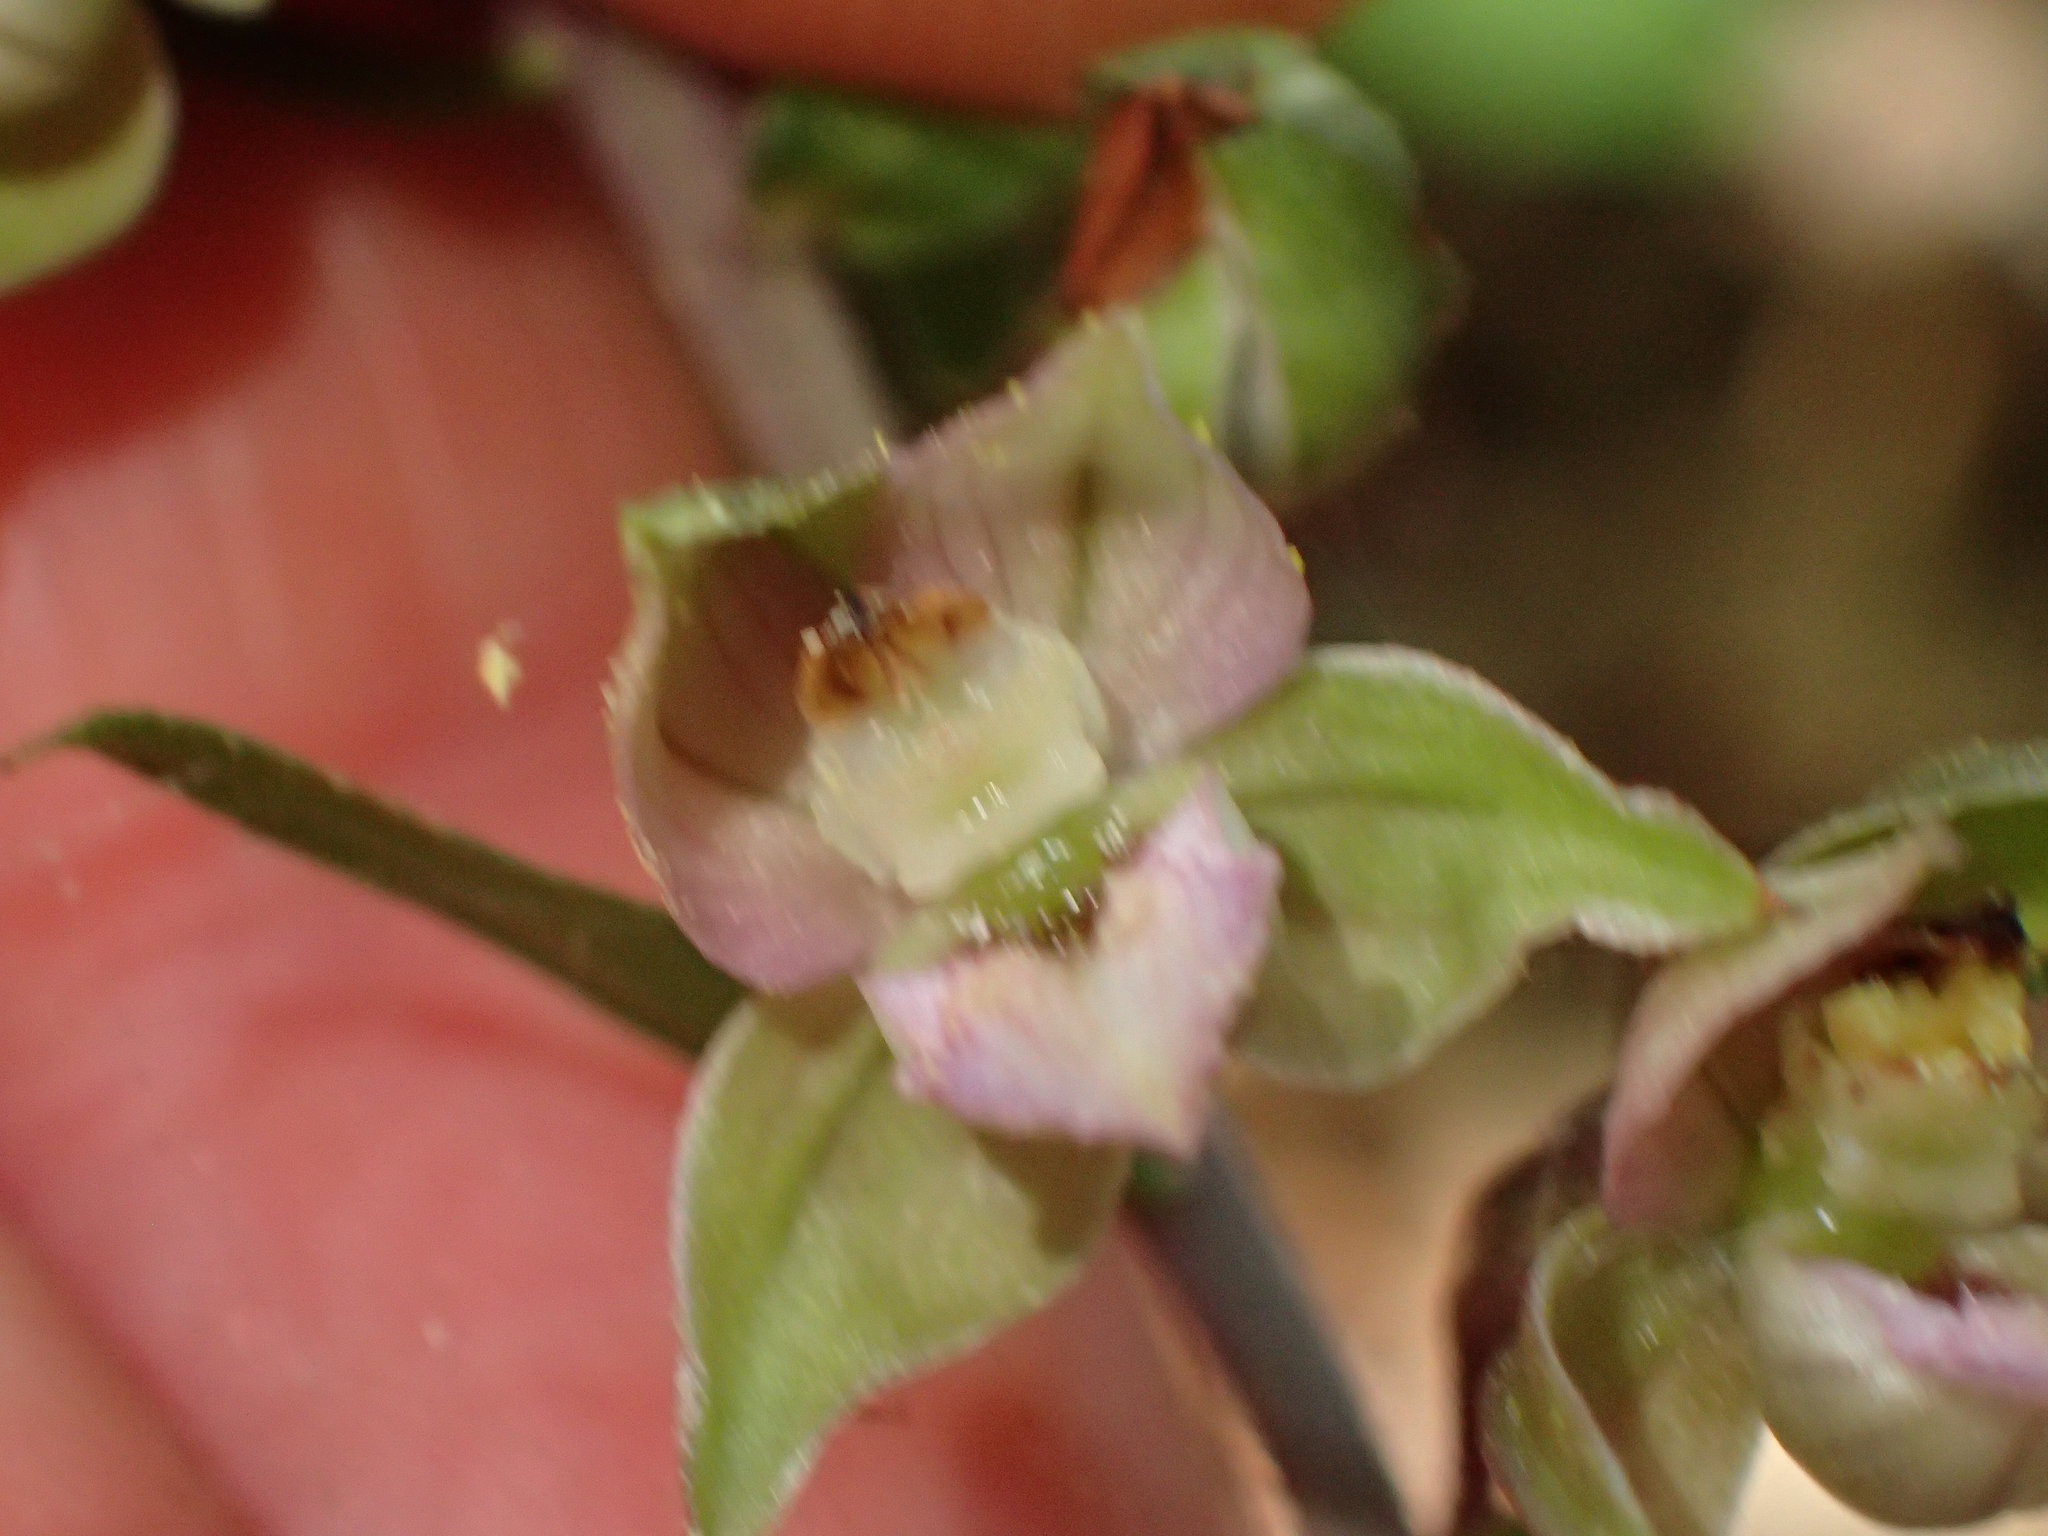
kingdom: Plantae
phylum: Tracheophyta
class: Liliopsida
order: Asparagales
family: Orchidaceae
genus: Epipactis
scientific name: Epipactis helleborine
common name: Broad-leaved helleborine
